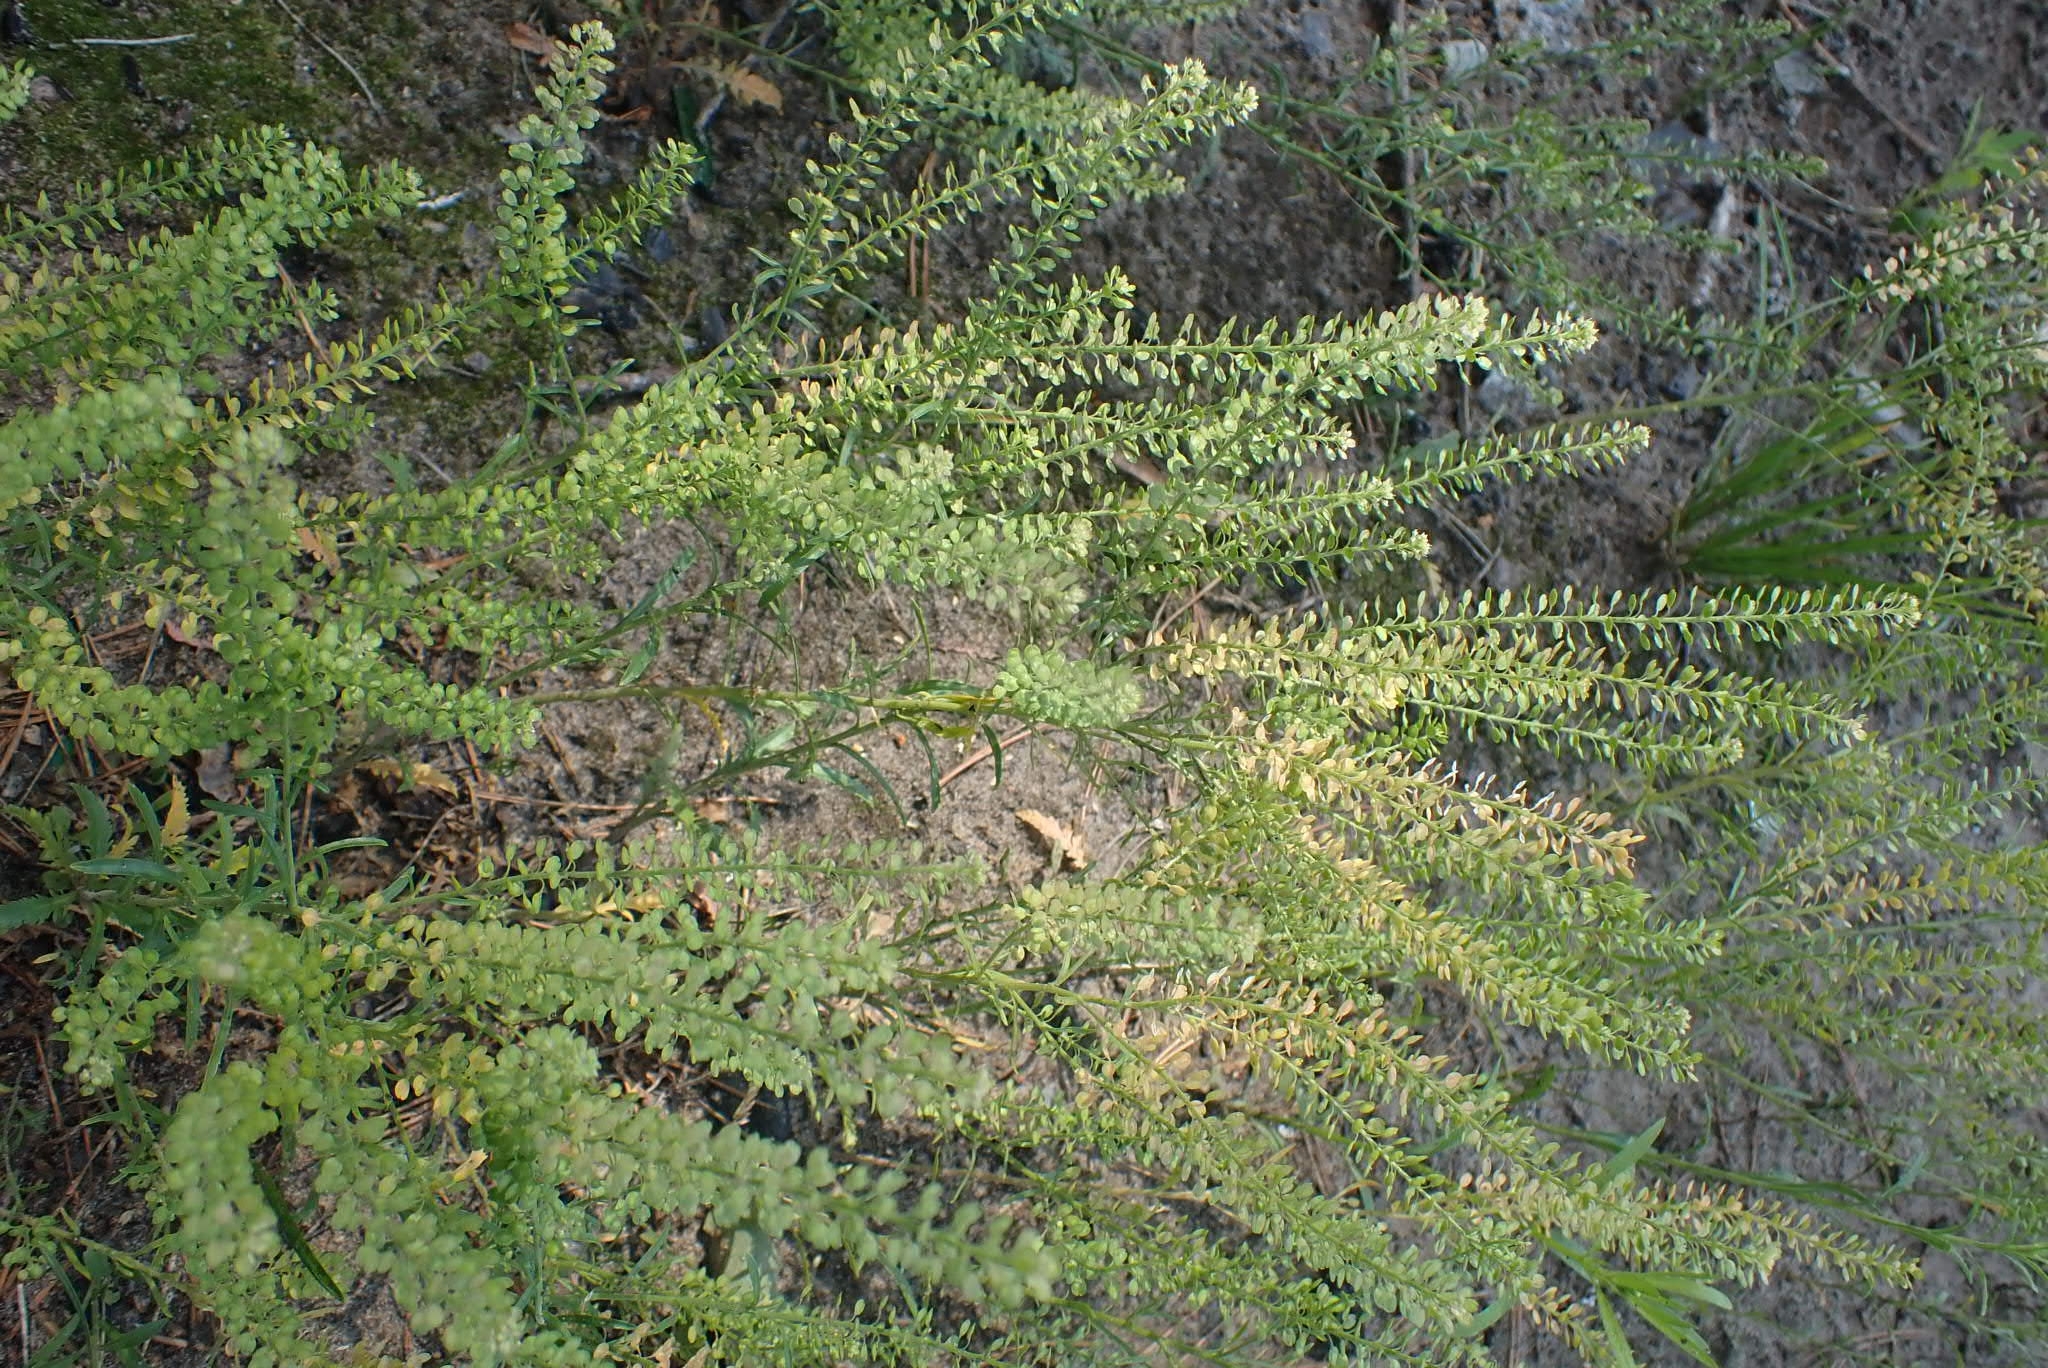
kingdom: Plantae
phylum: Tracheophyta
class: Magnoliopsida
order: Brassicales
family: Brassicaceae
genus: Lepidium
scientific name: Lepidium densiflorum
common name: Miner's pepperwort
